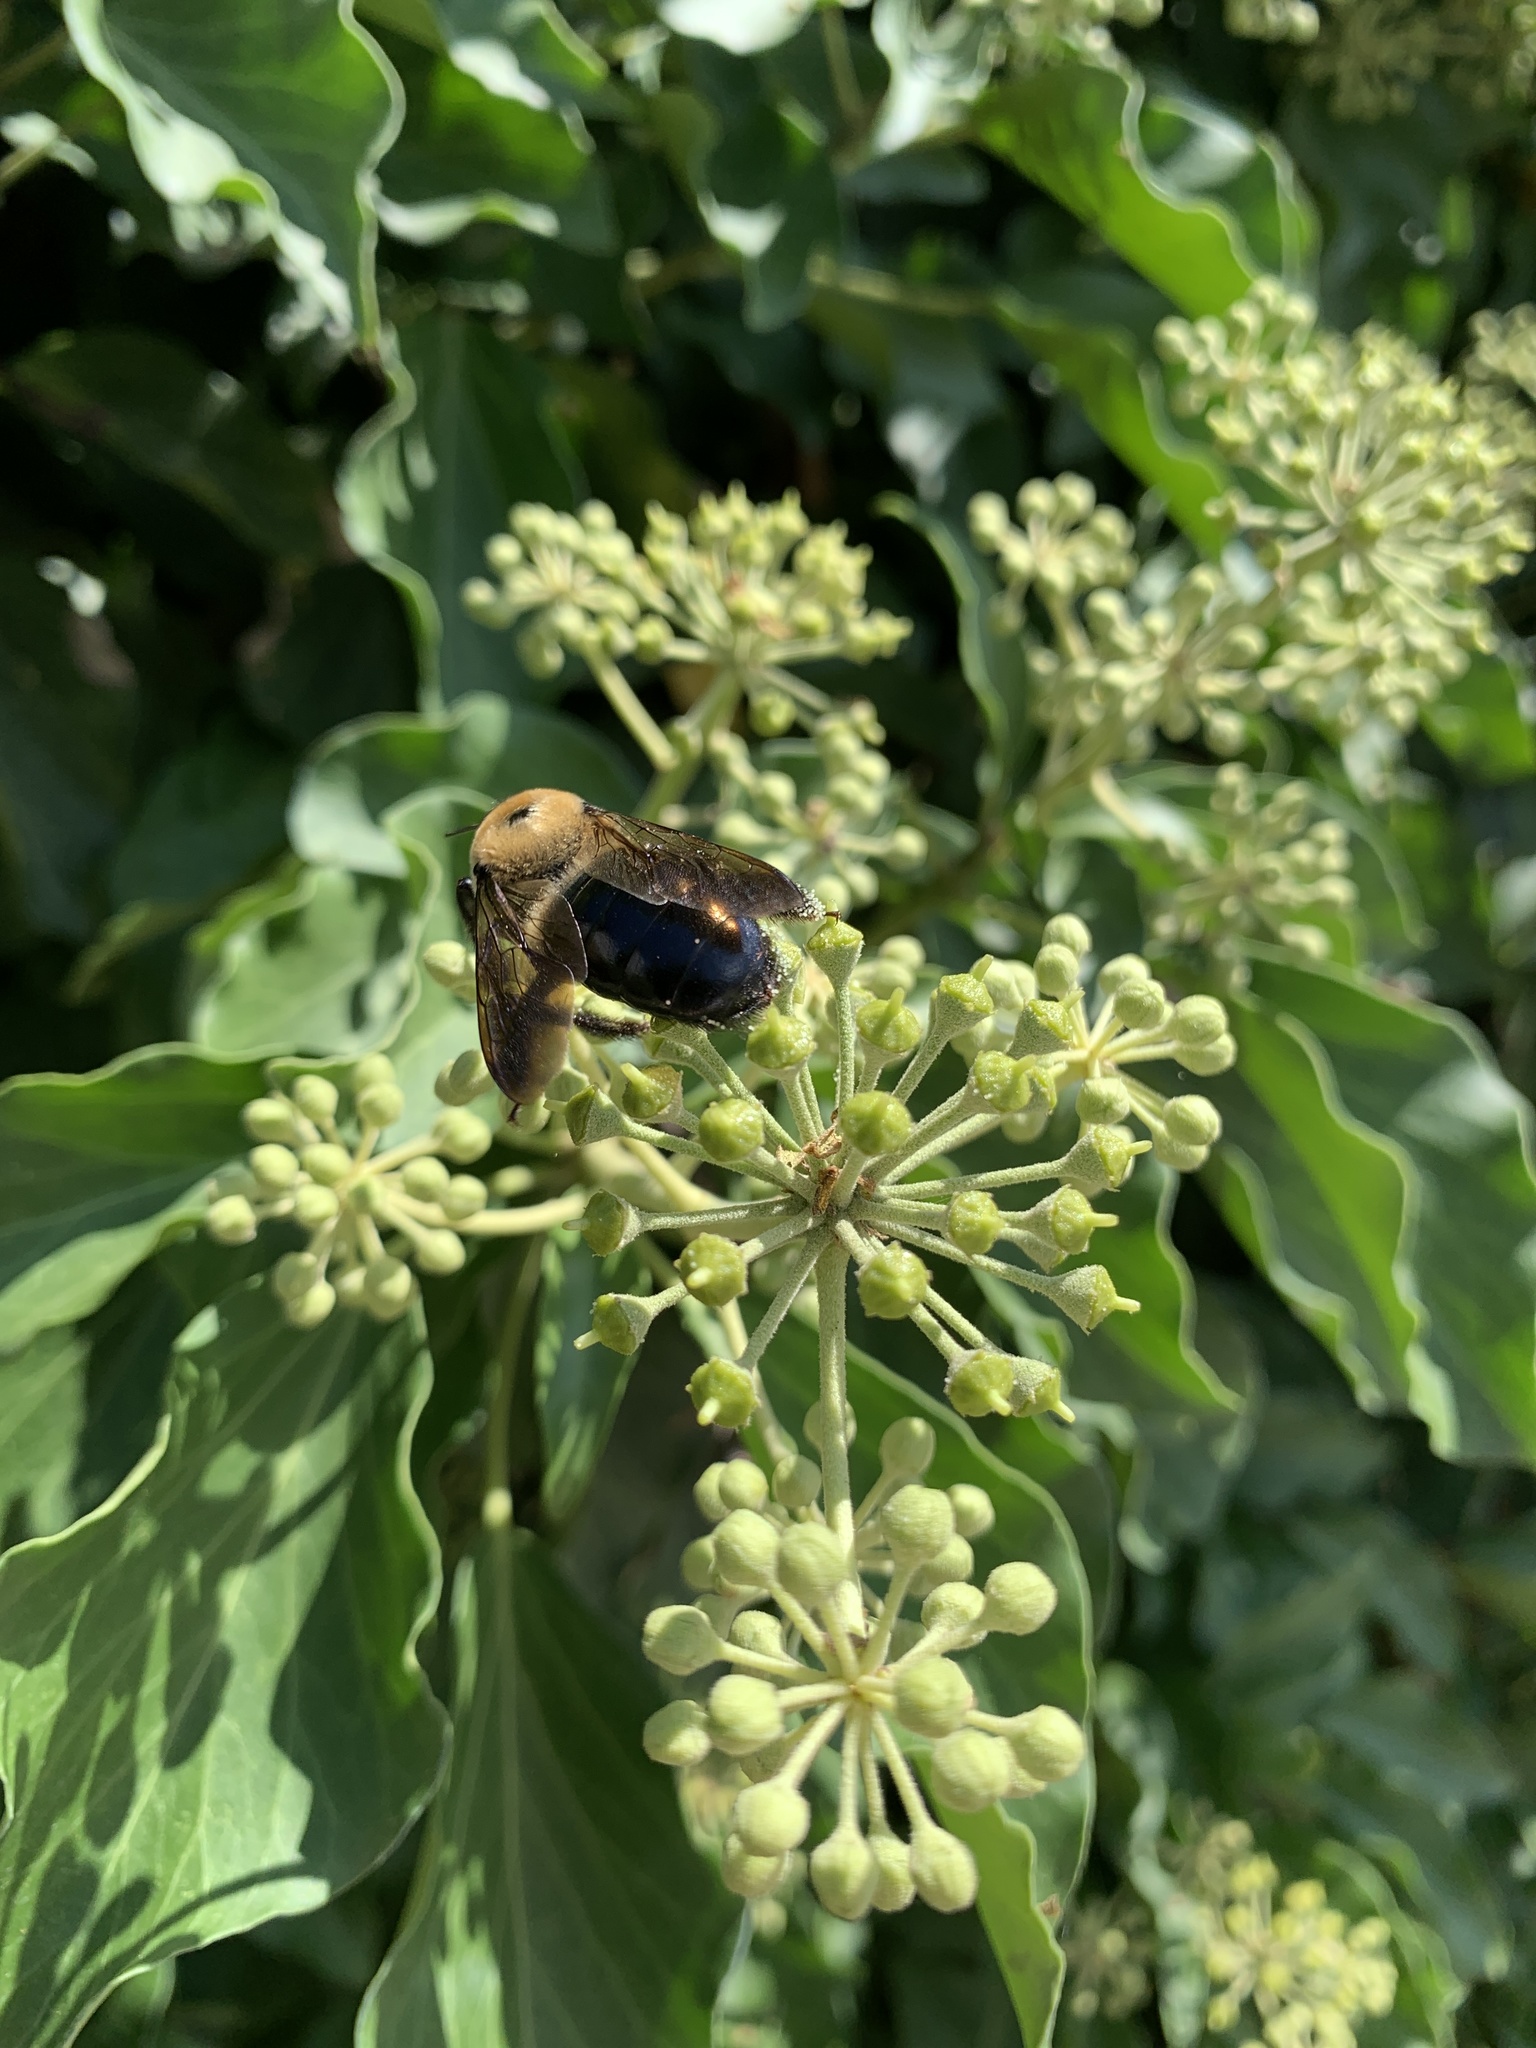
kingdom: Animalia
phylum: Arthropoda
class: Insecta
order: Hymenoptera
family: Apidae
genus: Xylocopa
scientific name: Xylocopa virginica
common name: Carpenter bee
